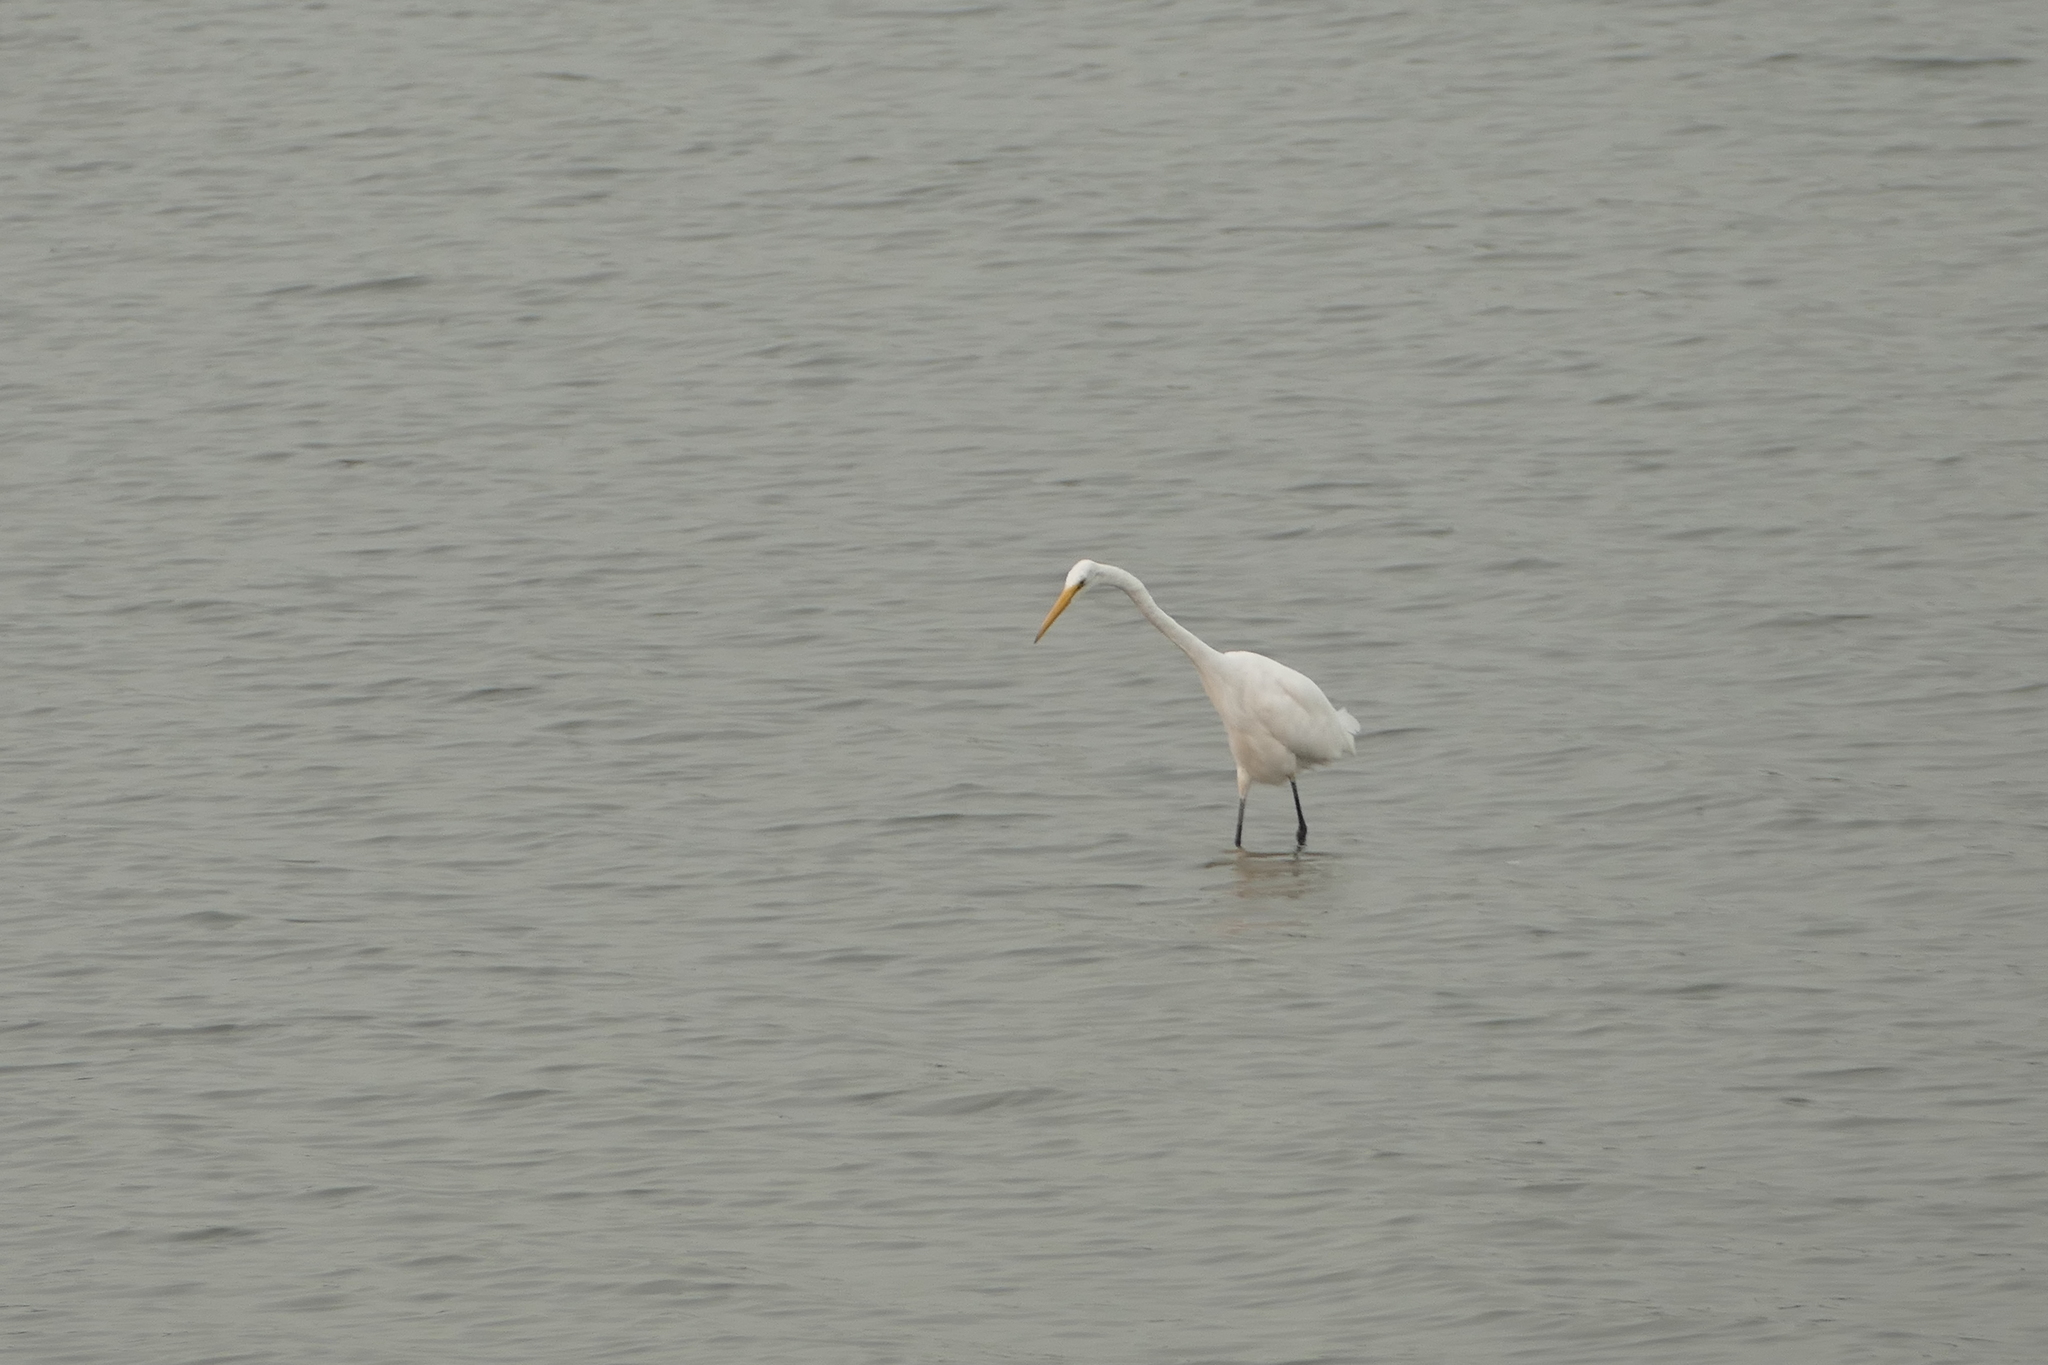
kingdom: Animalia
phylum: Chordata
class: Aves
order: Pelecaniformes
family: Ardeidae
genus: Ardea
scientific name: Ardea alba
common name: Great egret
